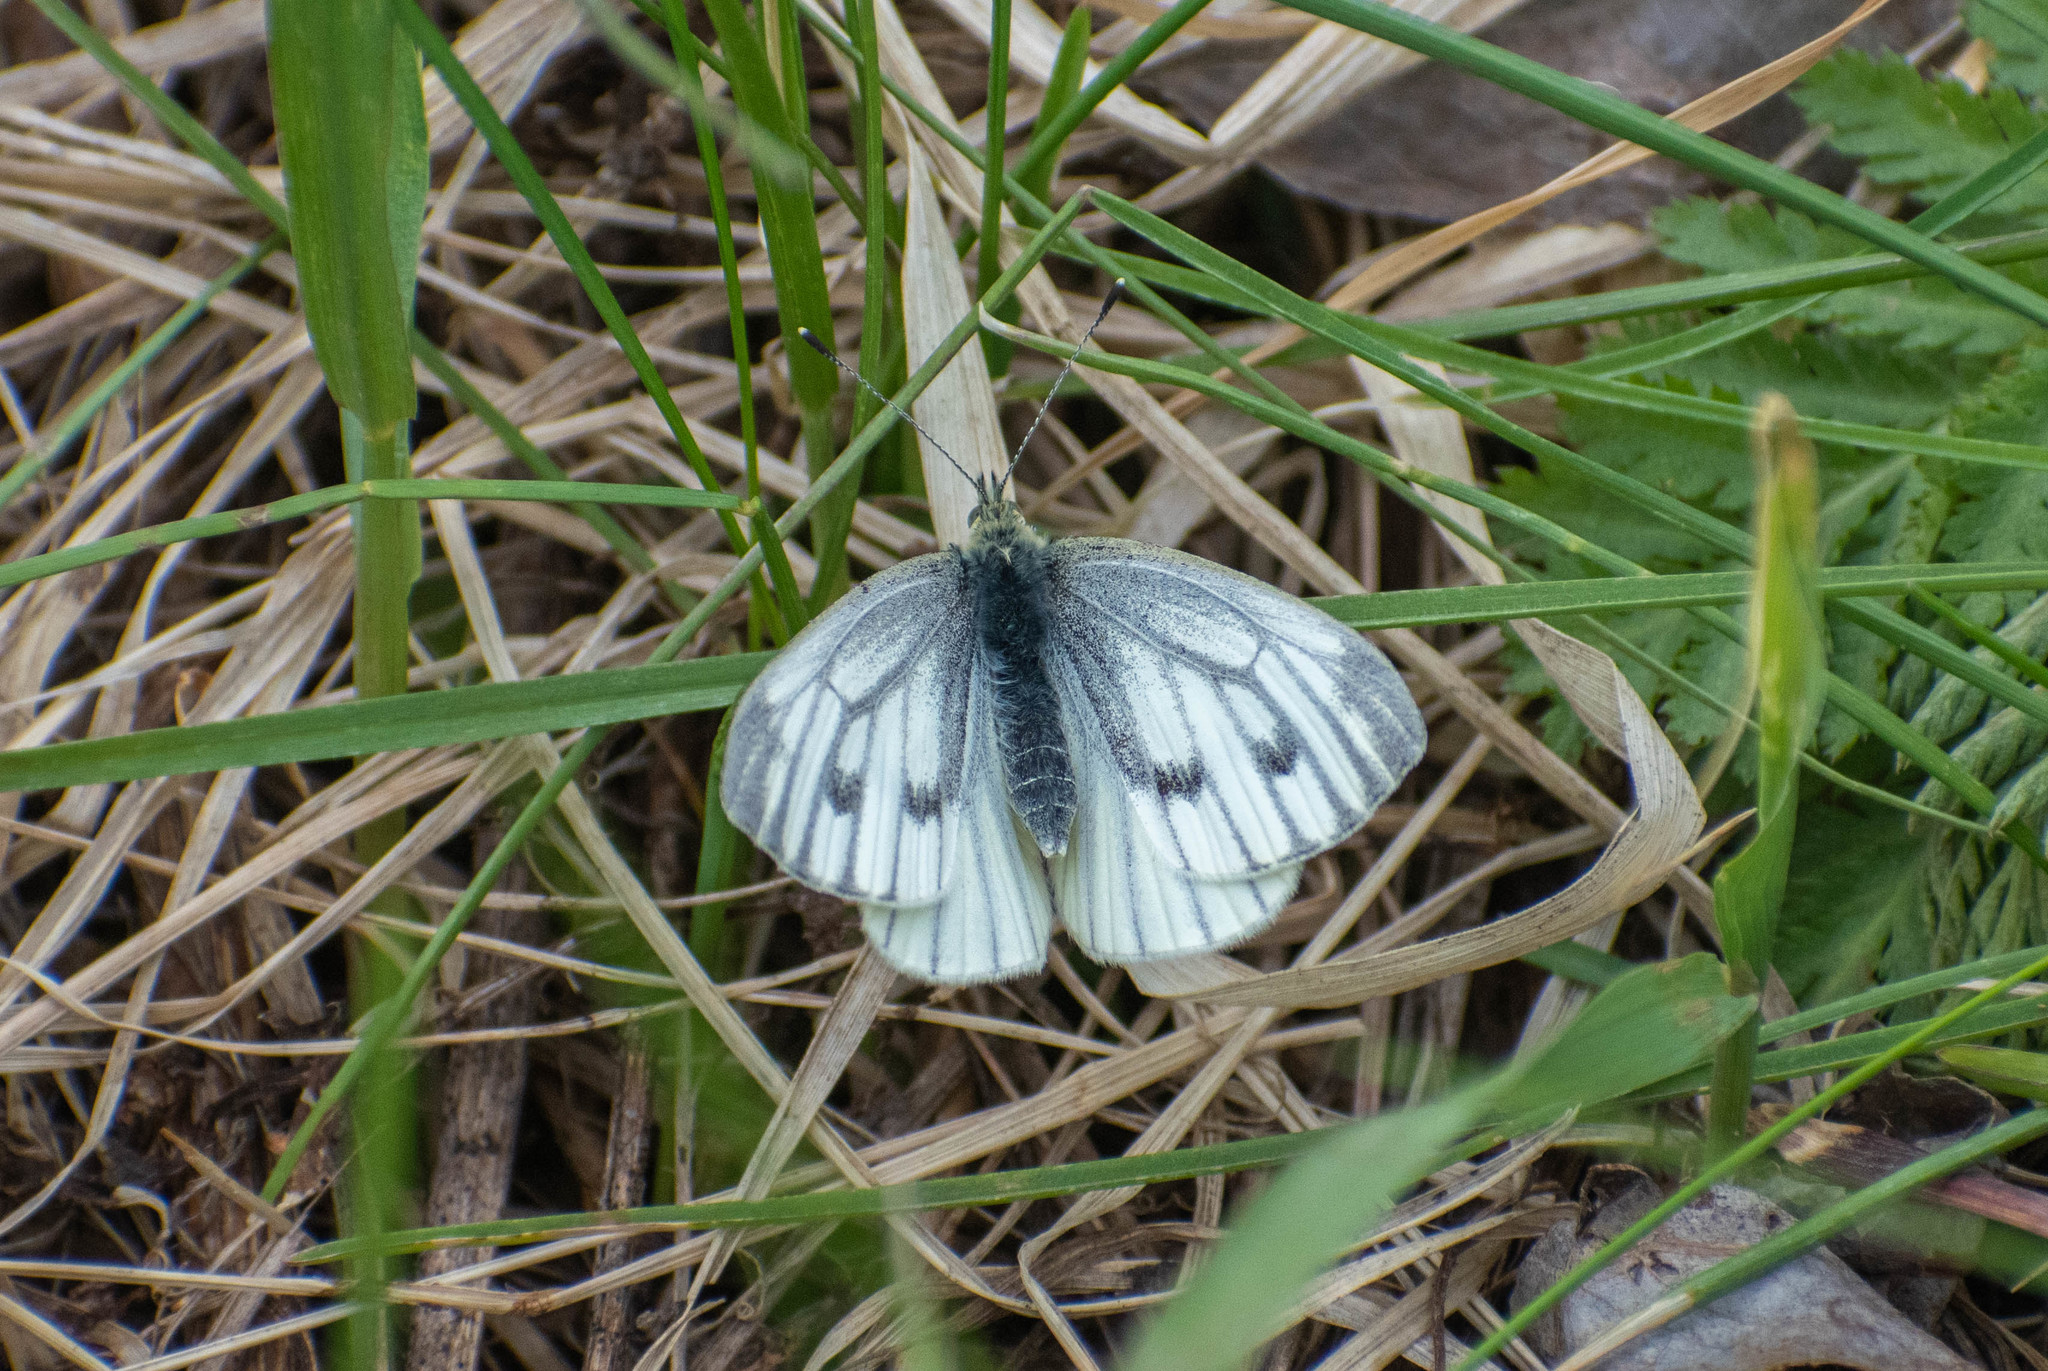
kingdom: Animalia
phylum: Arthropoda
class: Insecta
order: Lepidoptera
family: Pieridae
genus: Pieris
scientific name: Pieris napi
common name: Green-veined white
